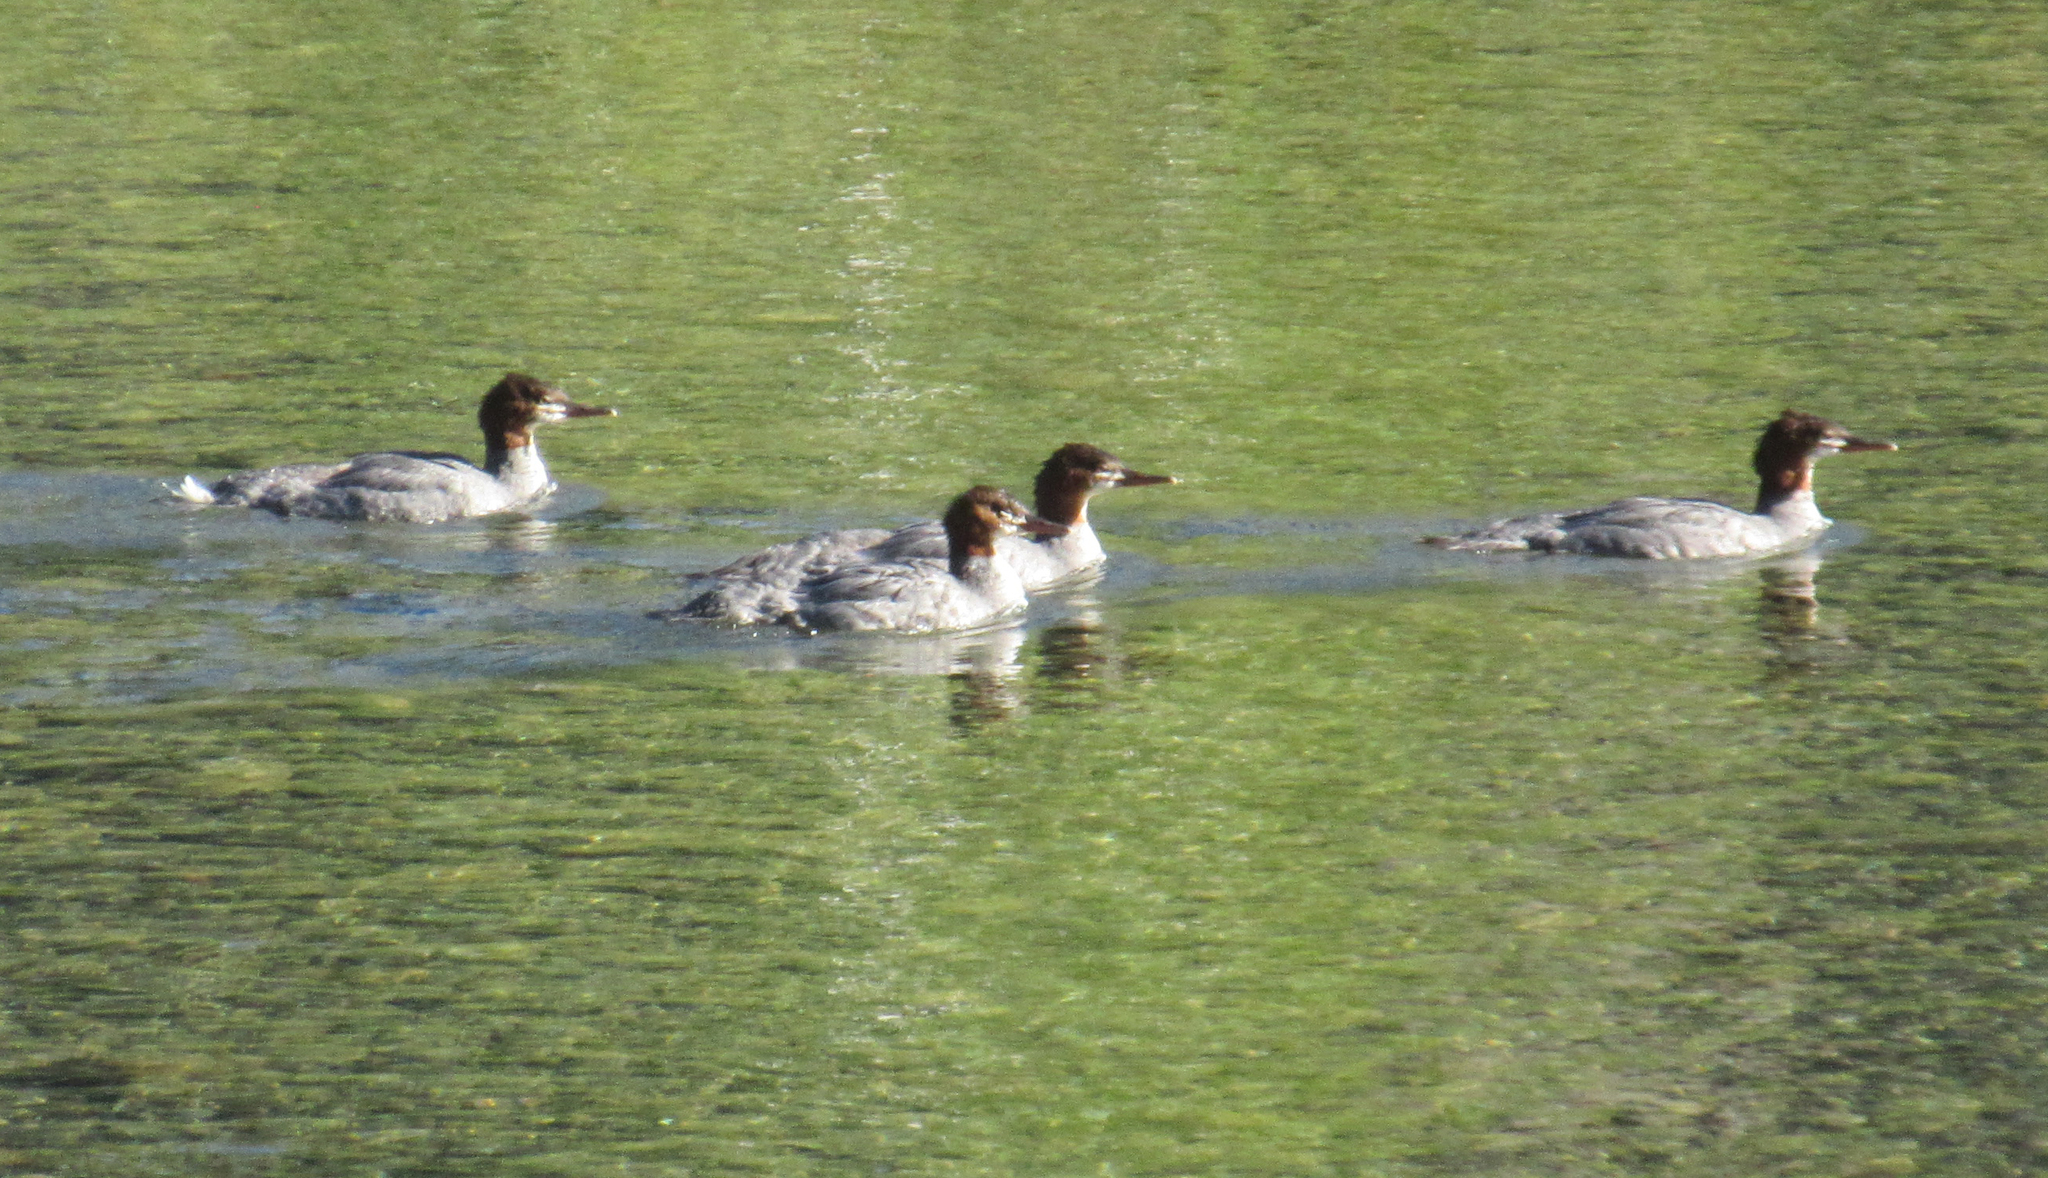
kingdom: Animalia
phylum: Chordata
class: Aves
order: Anseriformes
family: Anatidae
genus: Mergus
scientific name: Mergus merganser
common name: Common merganser
